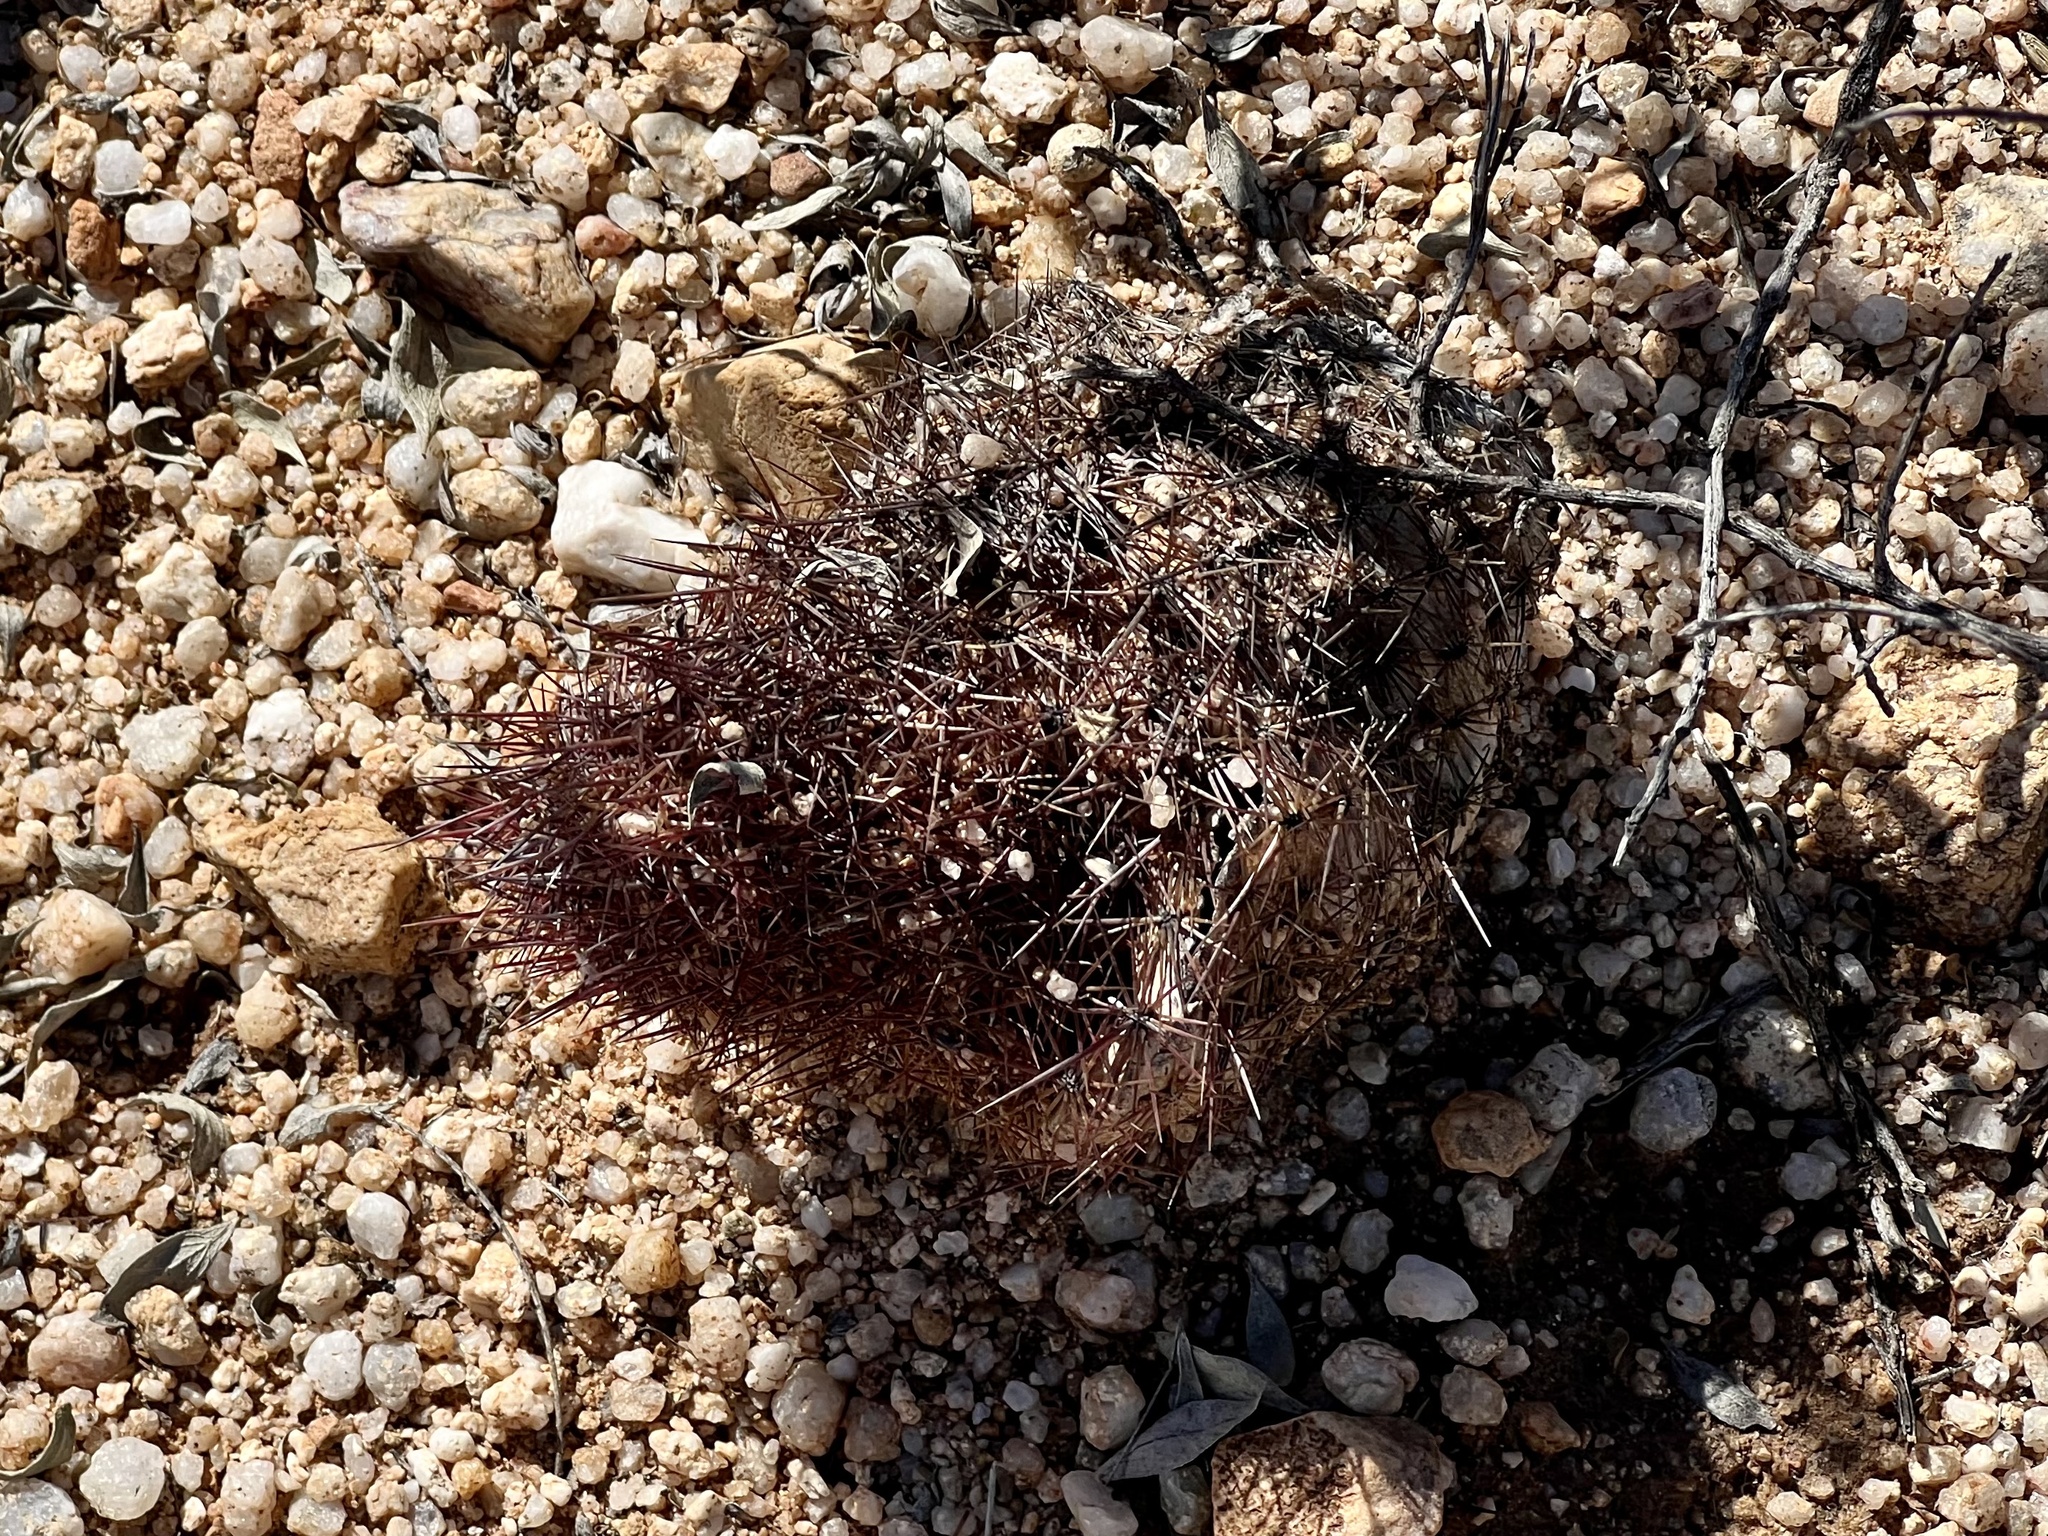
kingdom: Plantae
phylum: Tracheophyta
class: Magnoliopsida
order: Caryophyllales
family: Cactaceae
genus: Sclerocactus
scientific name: Sclerocactus johnsonii
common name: Eight-spine fishhook cactus
